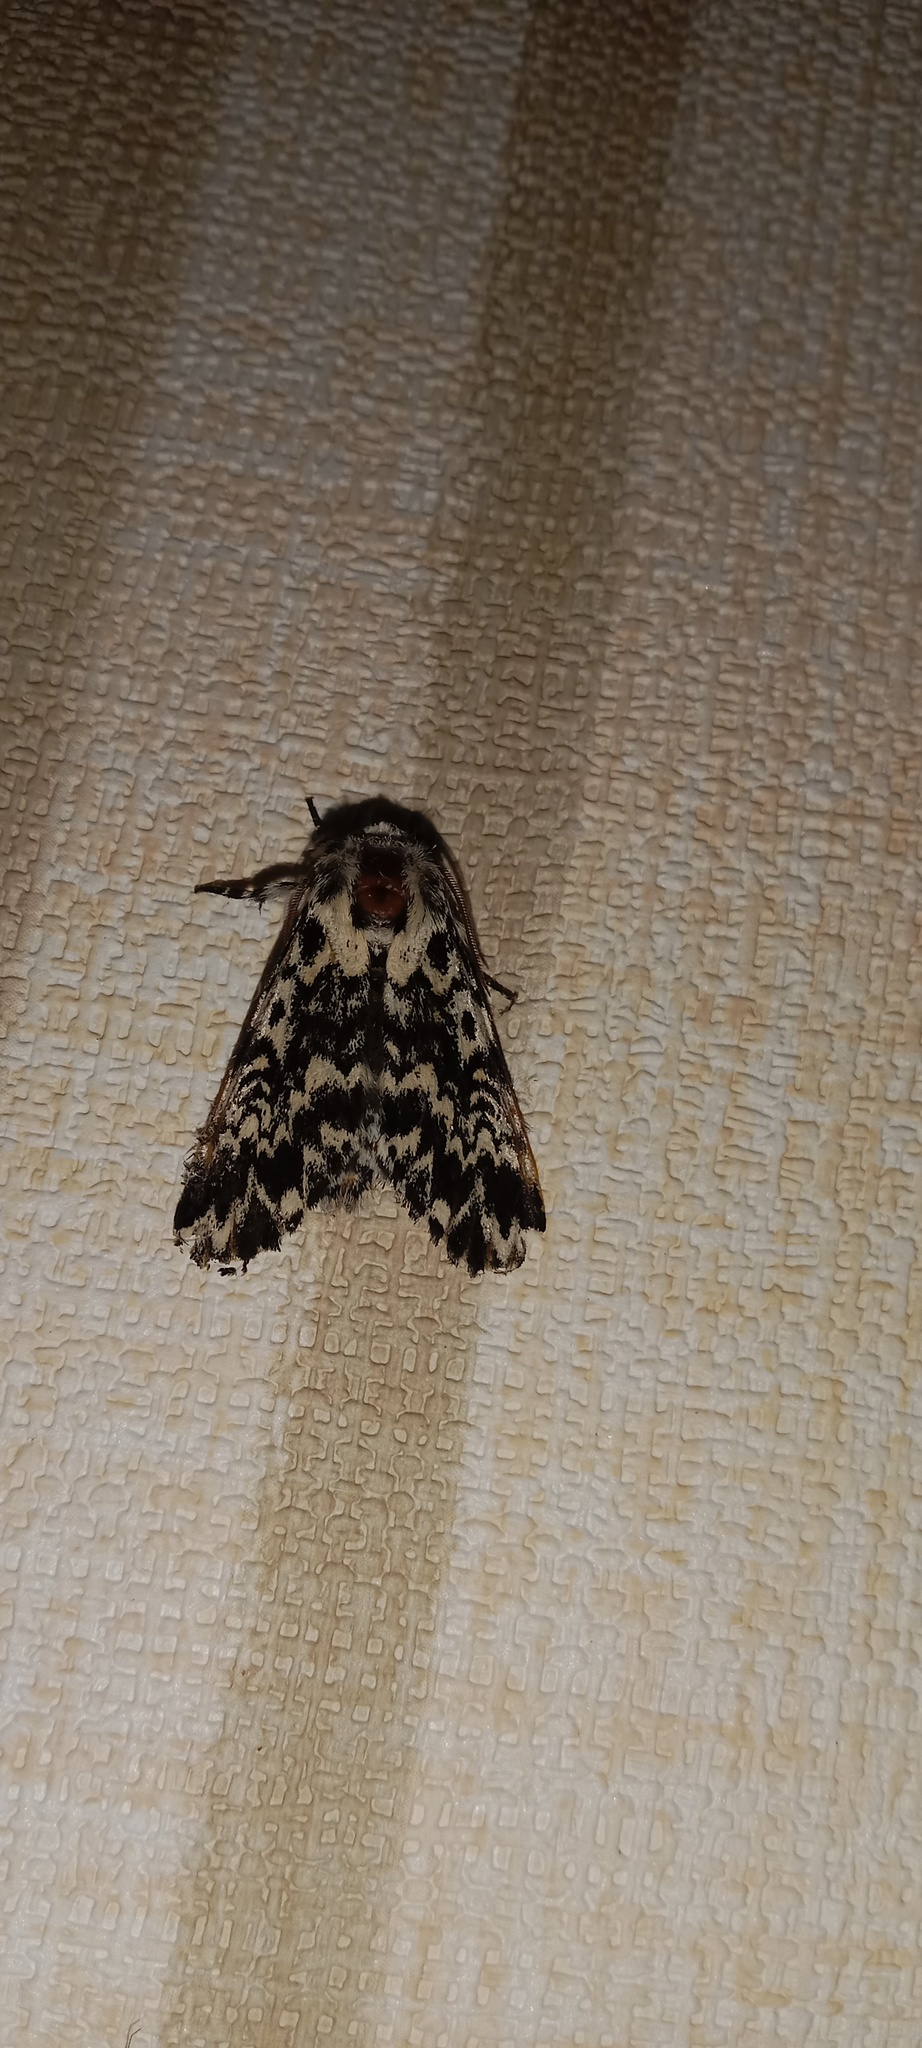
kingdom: Animalia
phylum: Arthropoda
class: Insecta
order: Lepidoptera
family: Noctuidae
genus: Panthea
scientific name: Panthea coenobita
